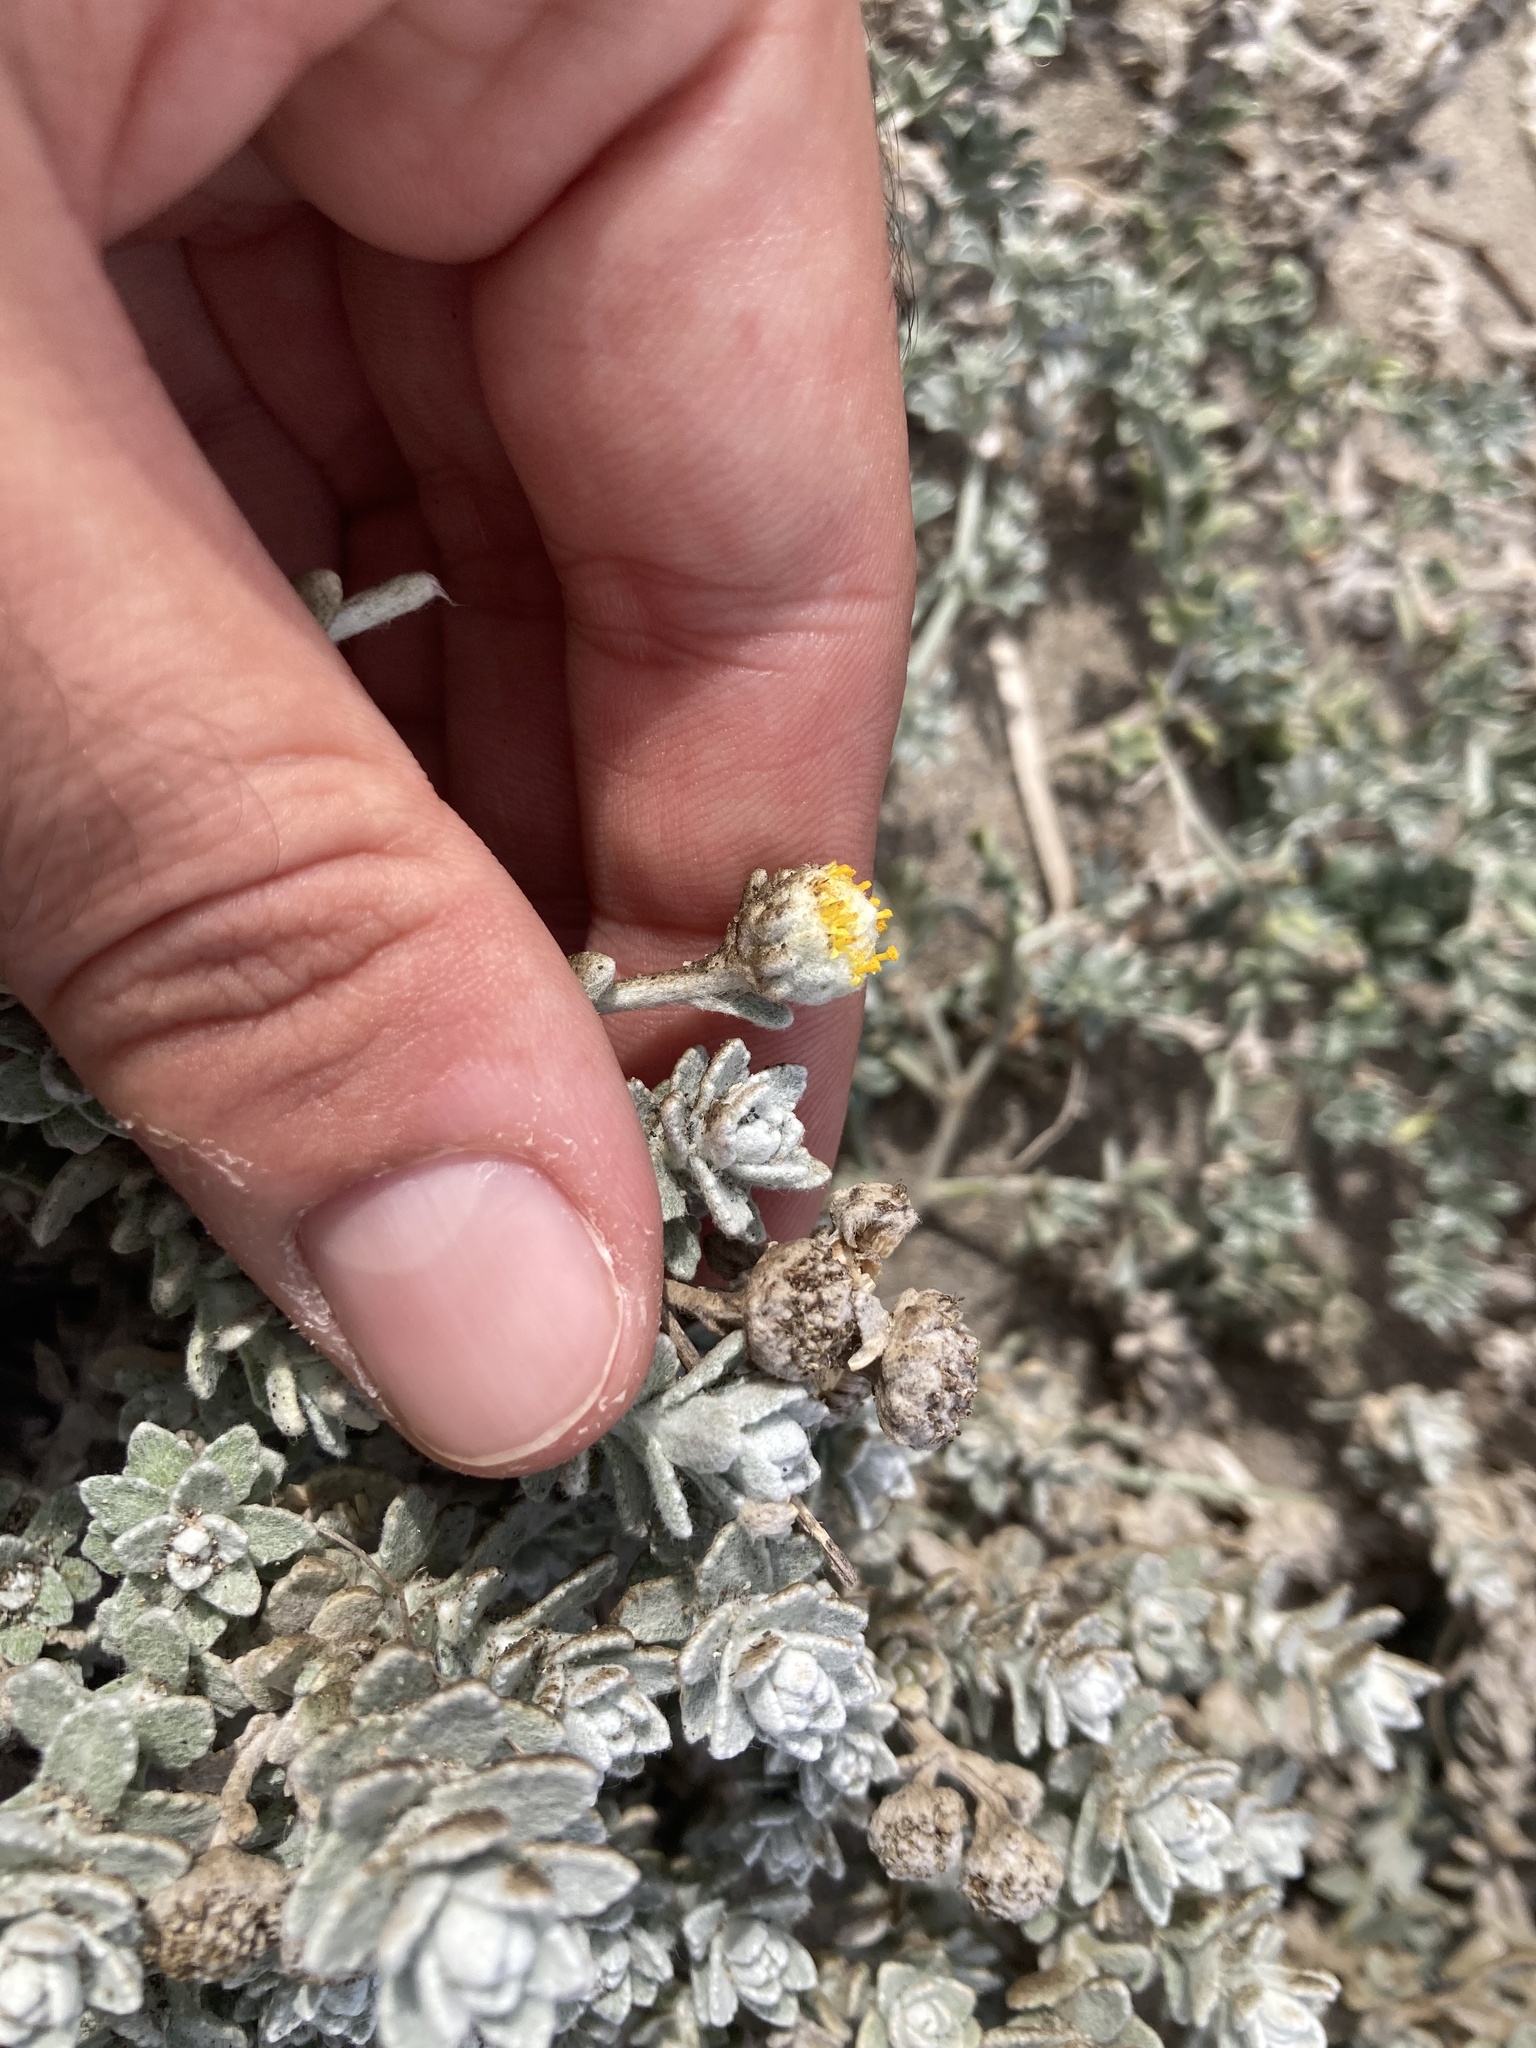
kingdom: Plantae
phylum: Tracheophyta
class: Magnoliopsida
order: Asterales
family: Asteraceae
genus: Achillea
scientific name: Achillea maritima
